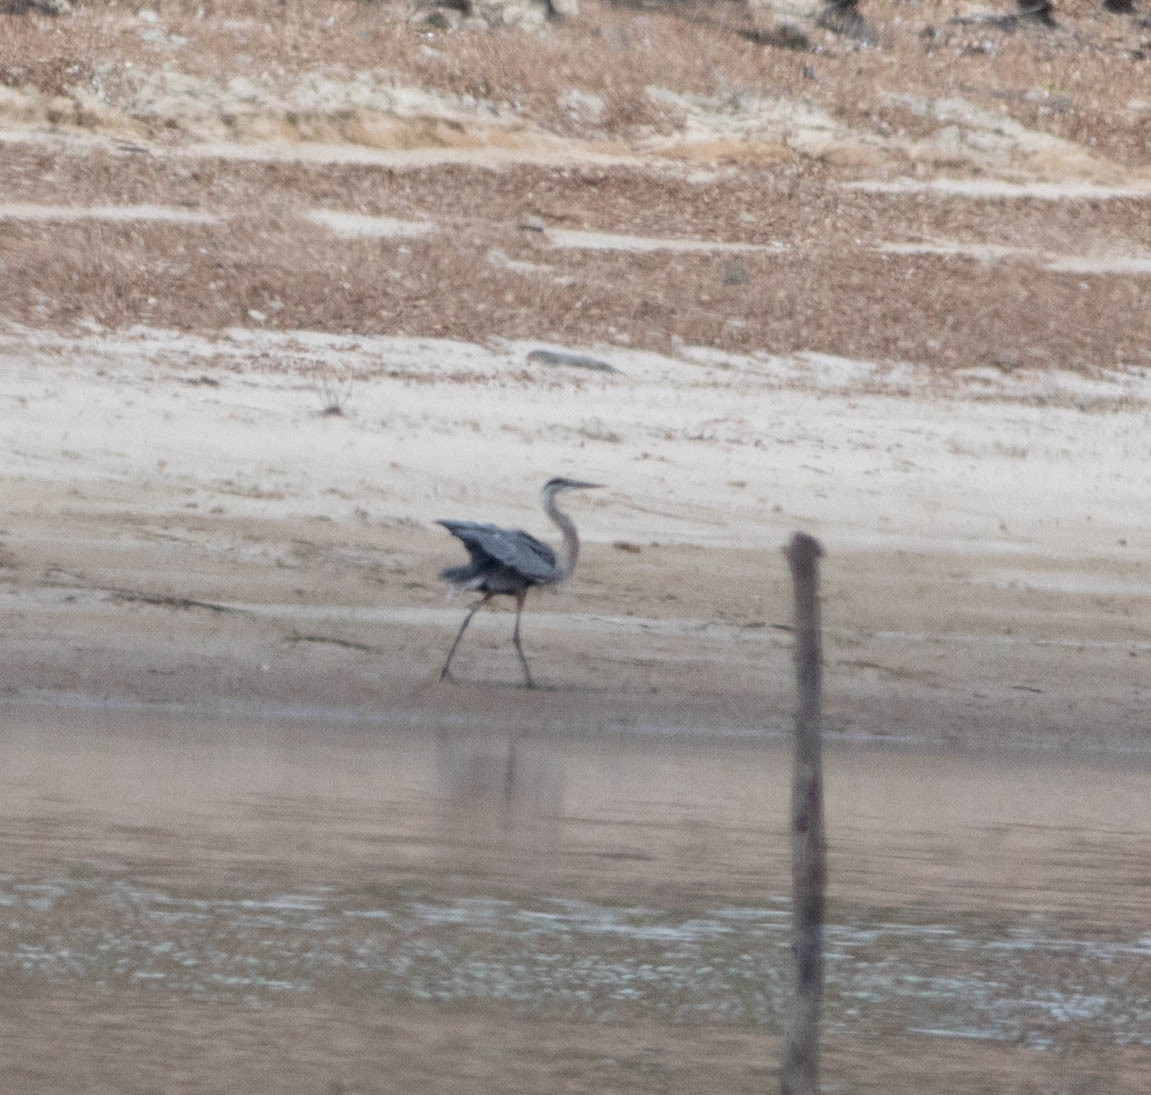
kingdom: Animalia
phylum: Chordata
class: Aves
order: Pelecaniformes
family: Ardeidae
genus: Ardea
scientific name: Ardea herodias
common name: Great blue heron
